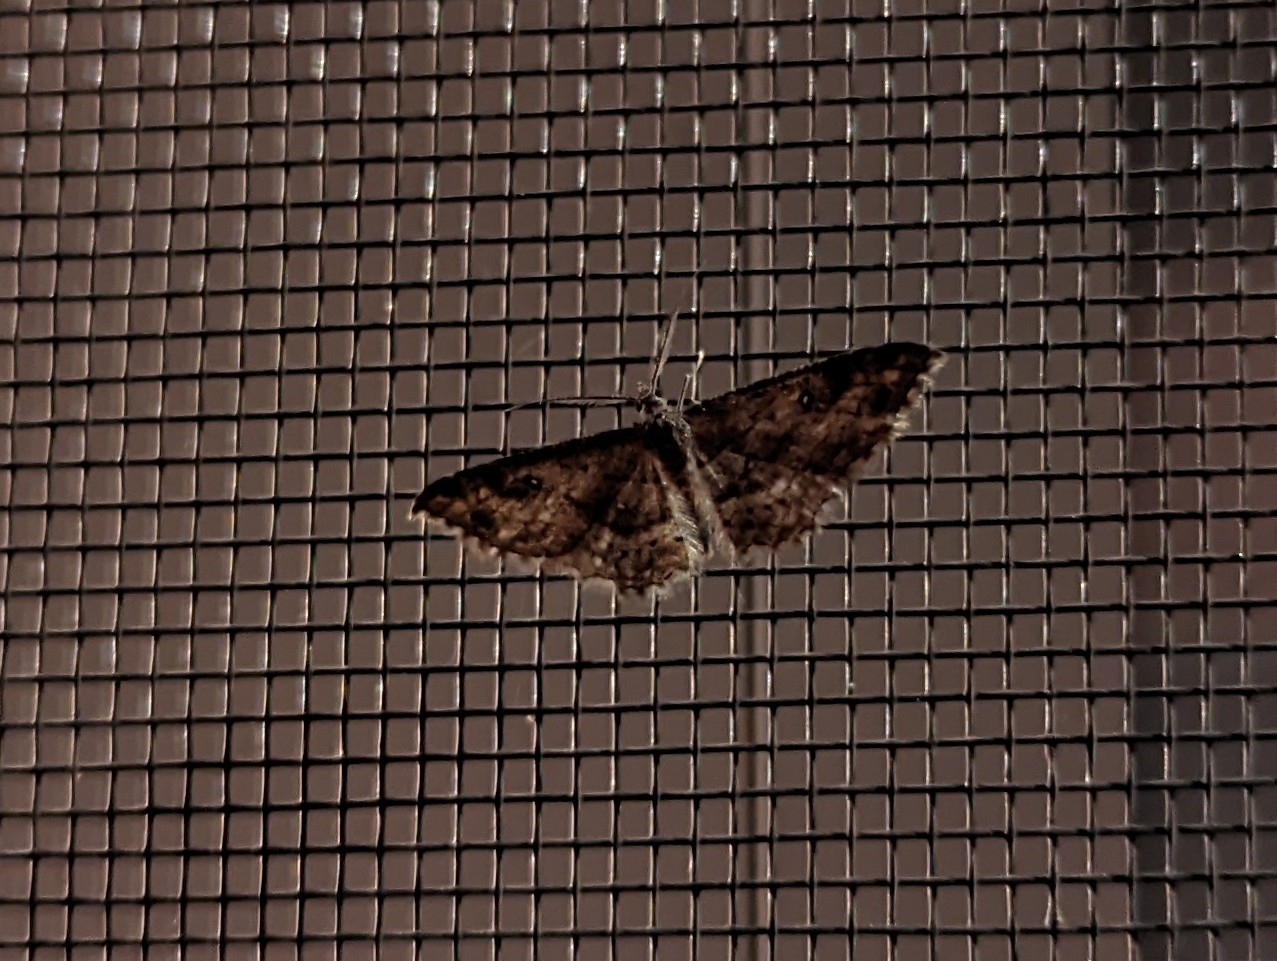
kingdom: Animalia
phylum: Arthropoda
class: Insecta
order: Lepidoptera
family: Geometridae
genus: Cyclophora
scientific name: Cyclophora nanaria
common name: Cankerworm
